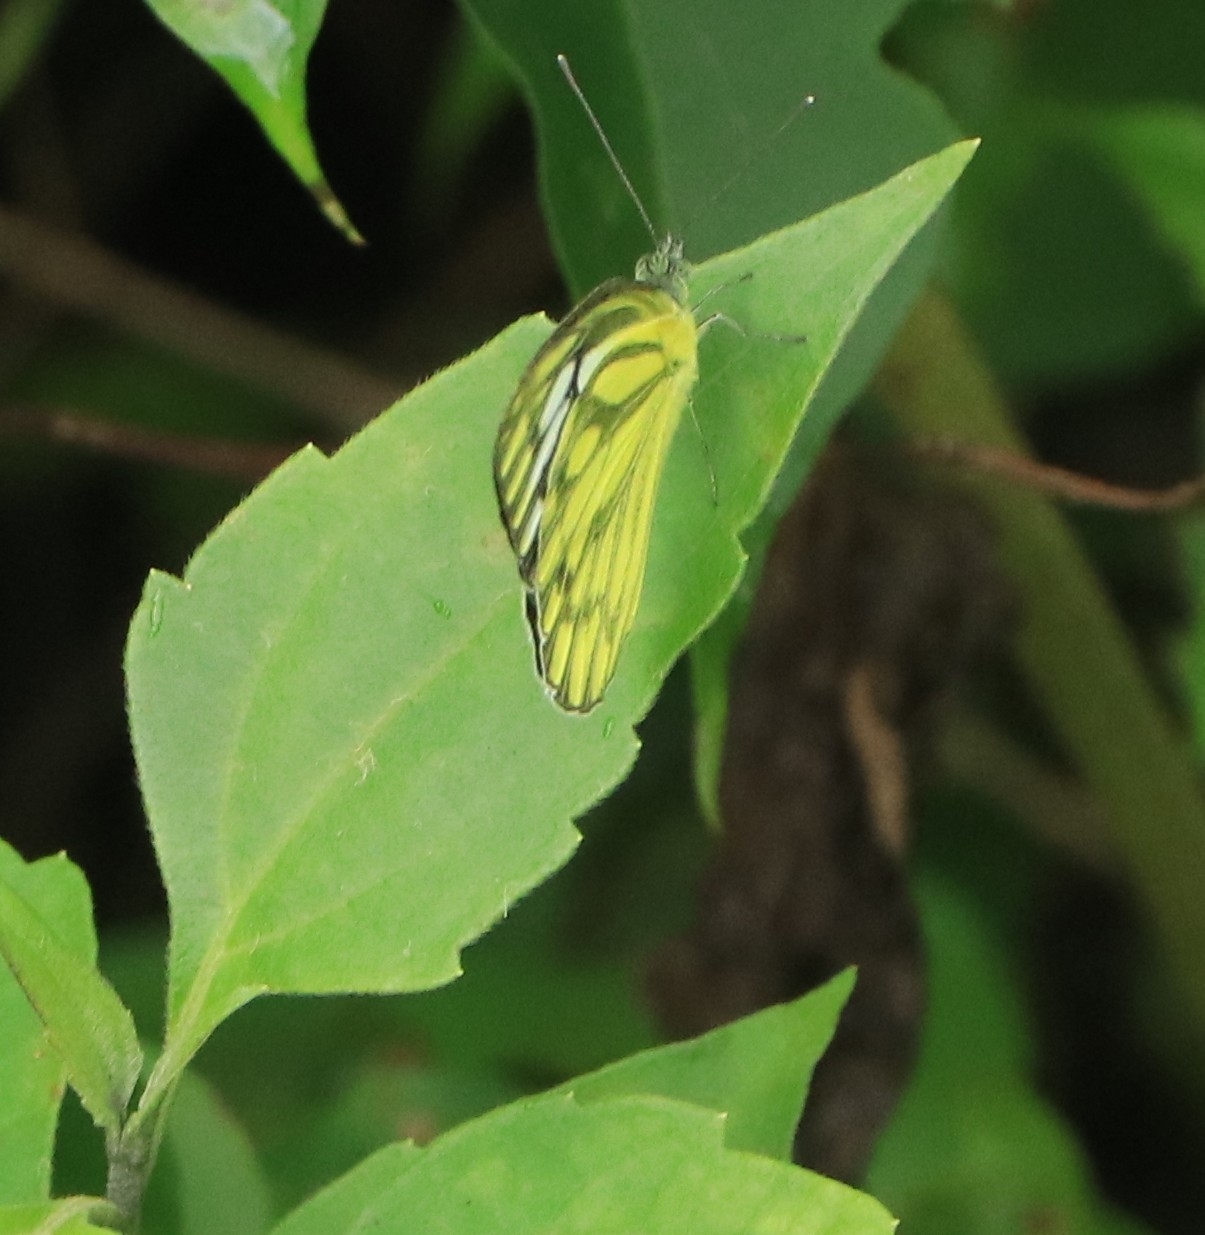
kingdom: Animalia
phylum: Arthropoda
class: Insecta
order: Lepidoptera
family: Pieridae
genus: Cepora
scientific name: Cepora nerissa
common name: Common gull
